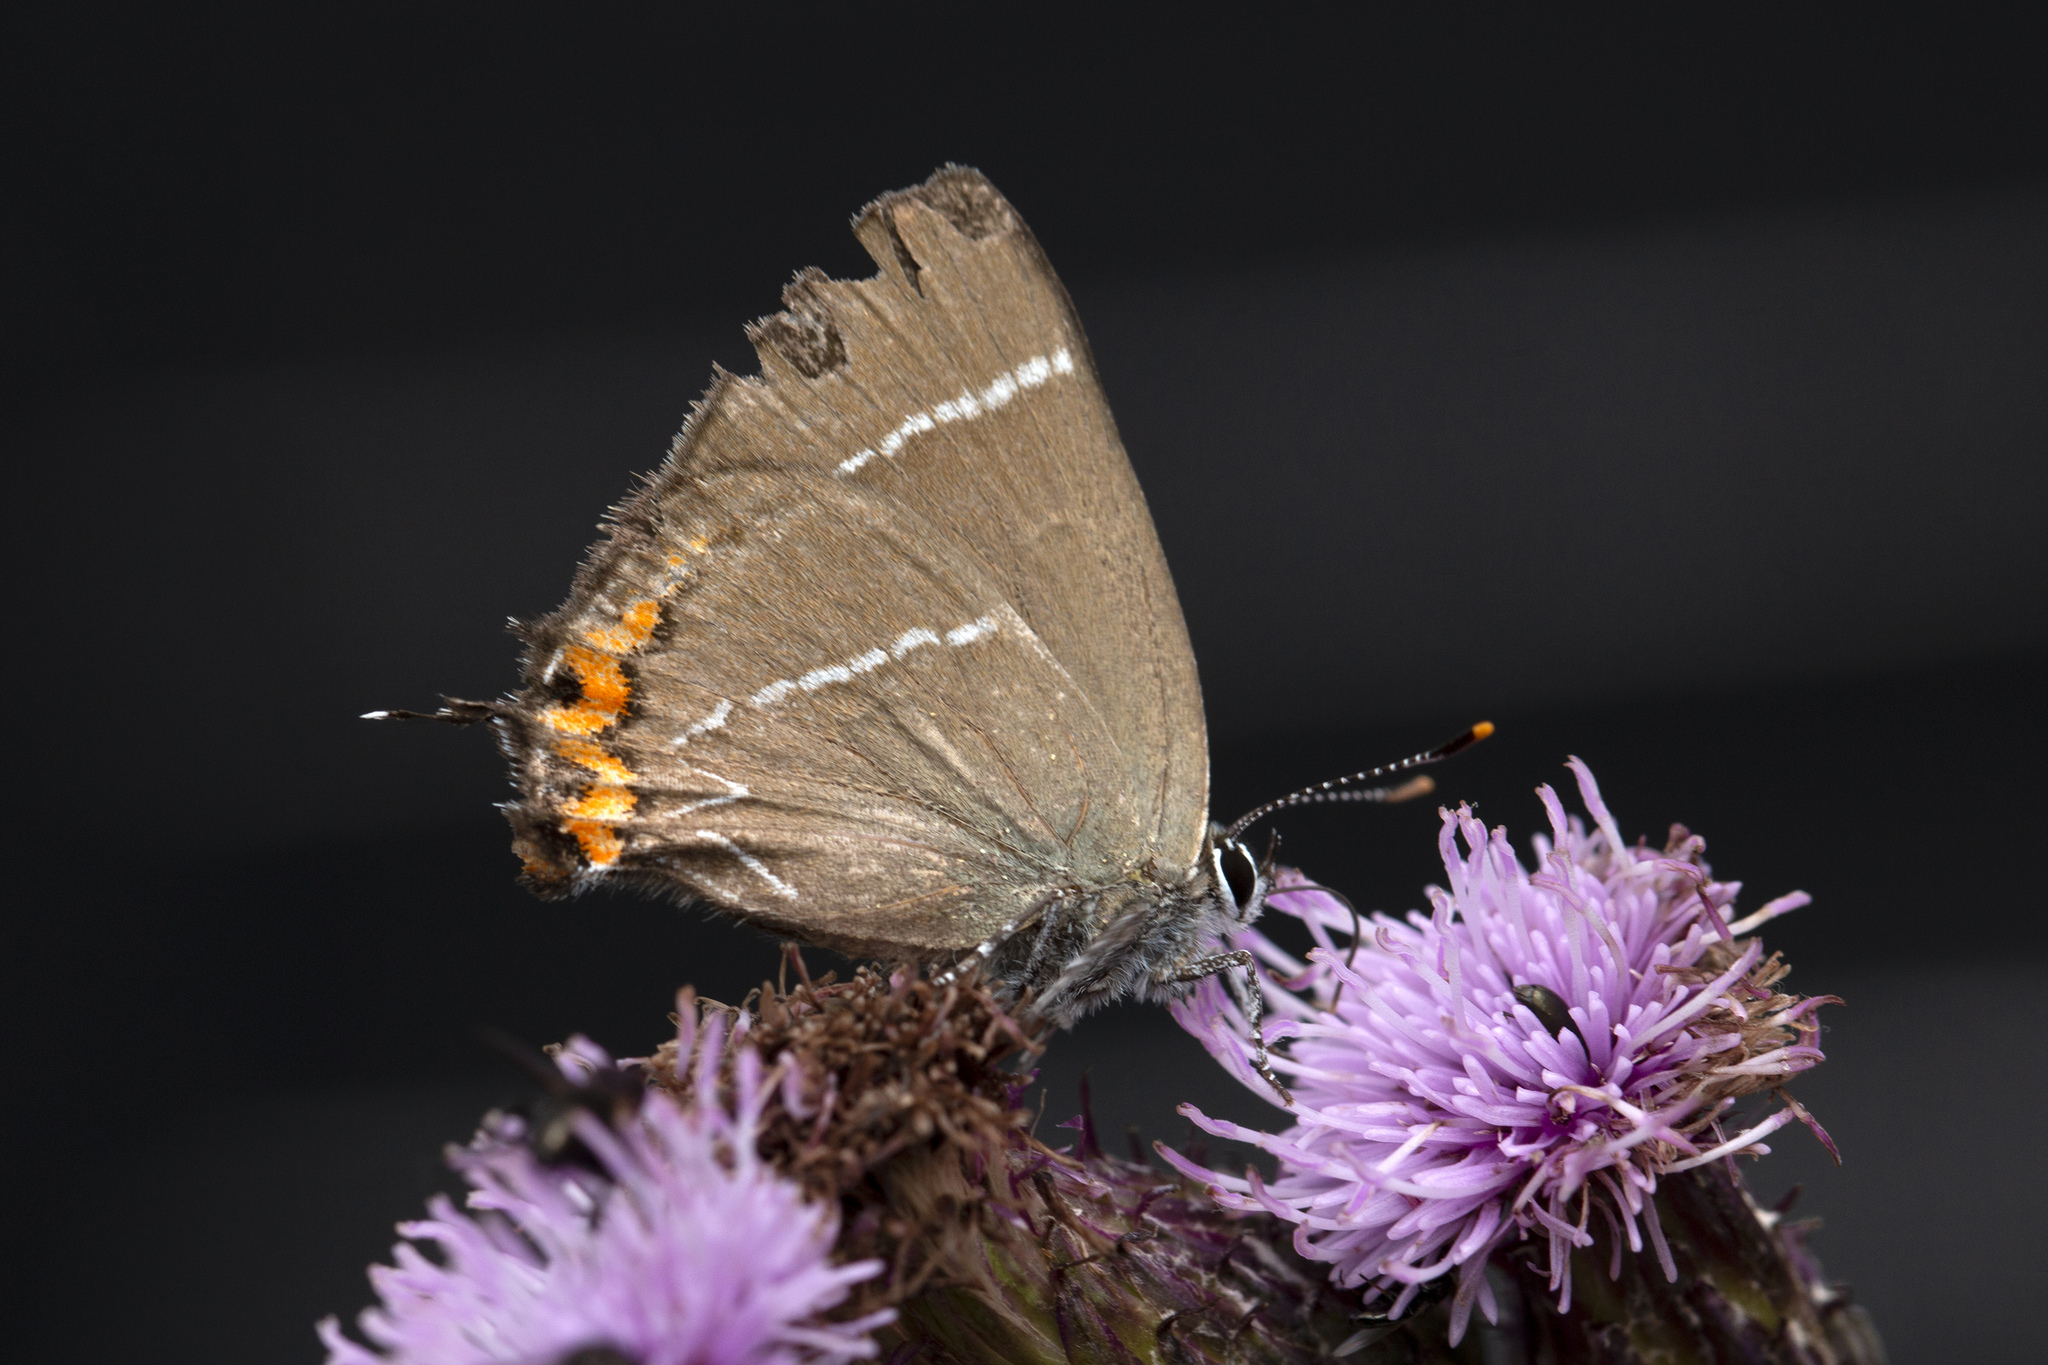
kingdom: Animalia
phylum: Arthropoda
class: Insecta
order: Lepidoptera
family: Lycaenidae
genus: Satyrium
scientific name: Satyrium w-album
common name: White-letter hairstreak
